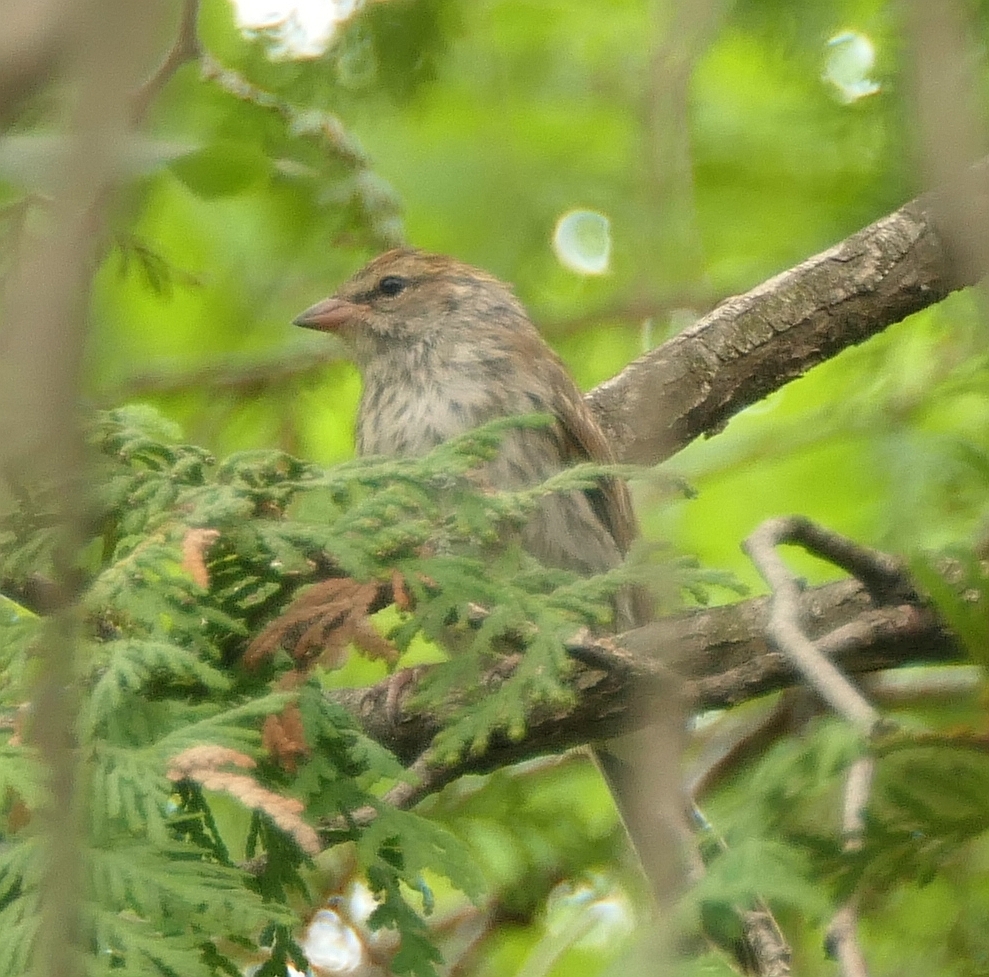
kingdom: Animalia
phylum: Chordata
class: Aves
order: Passeriformes
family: Passerellidae
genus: Spizella
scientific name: Spizella passerina
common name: Chipping sparrow
